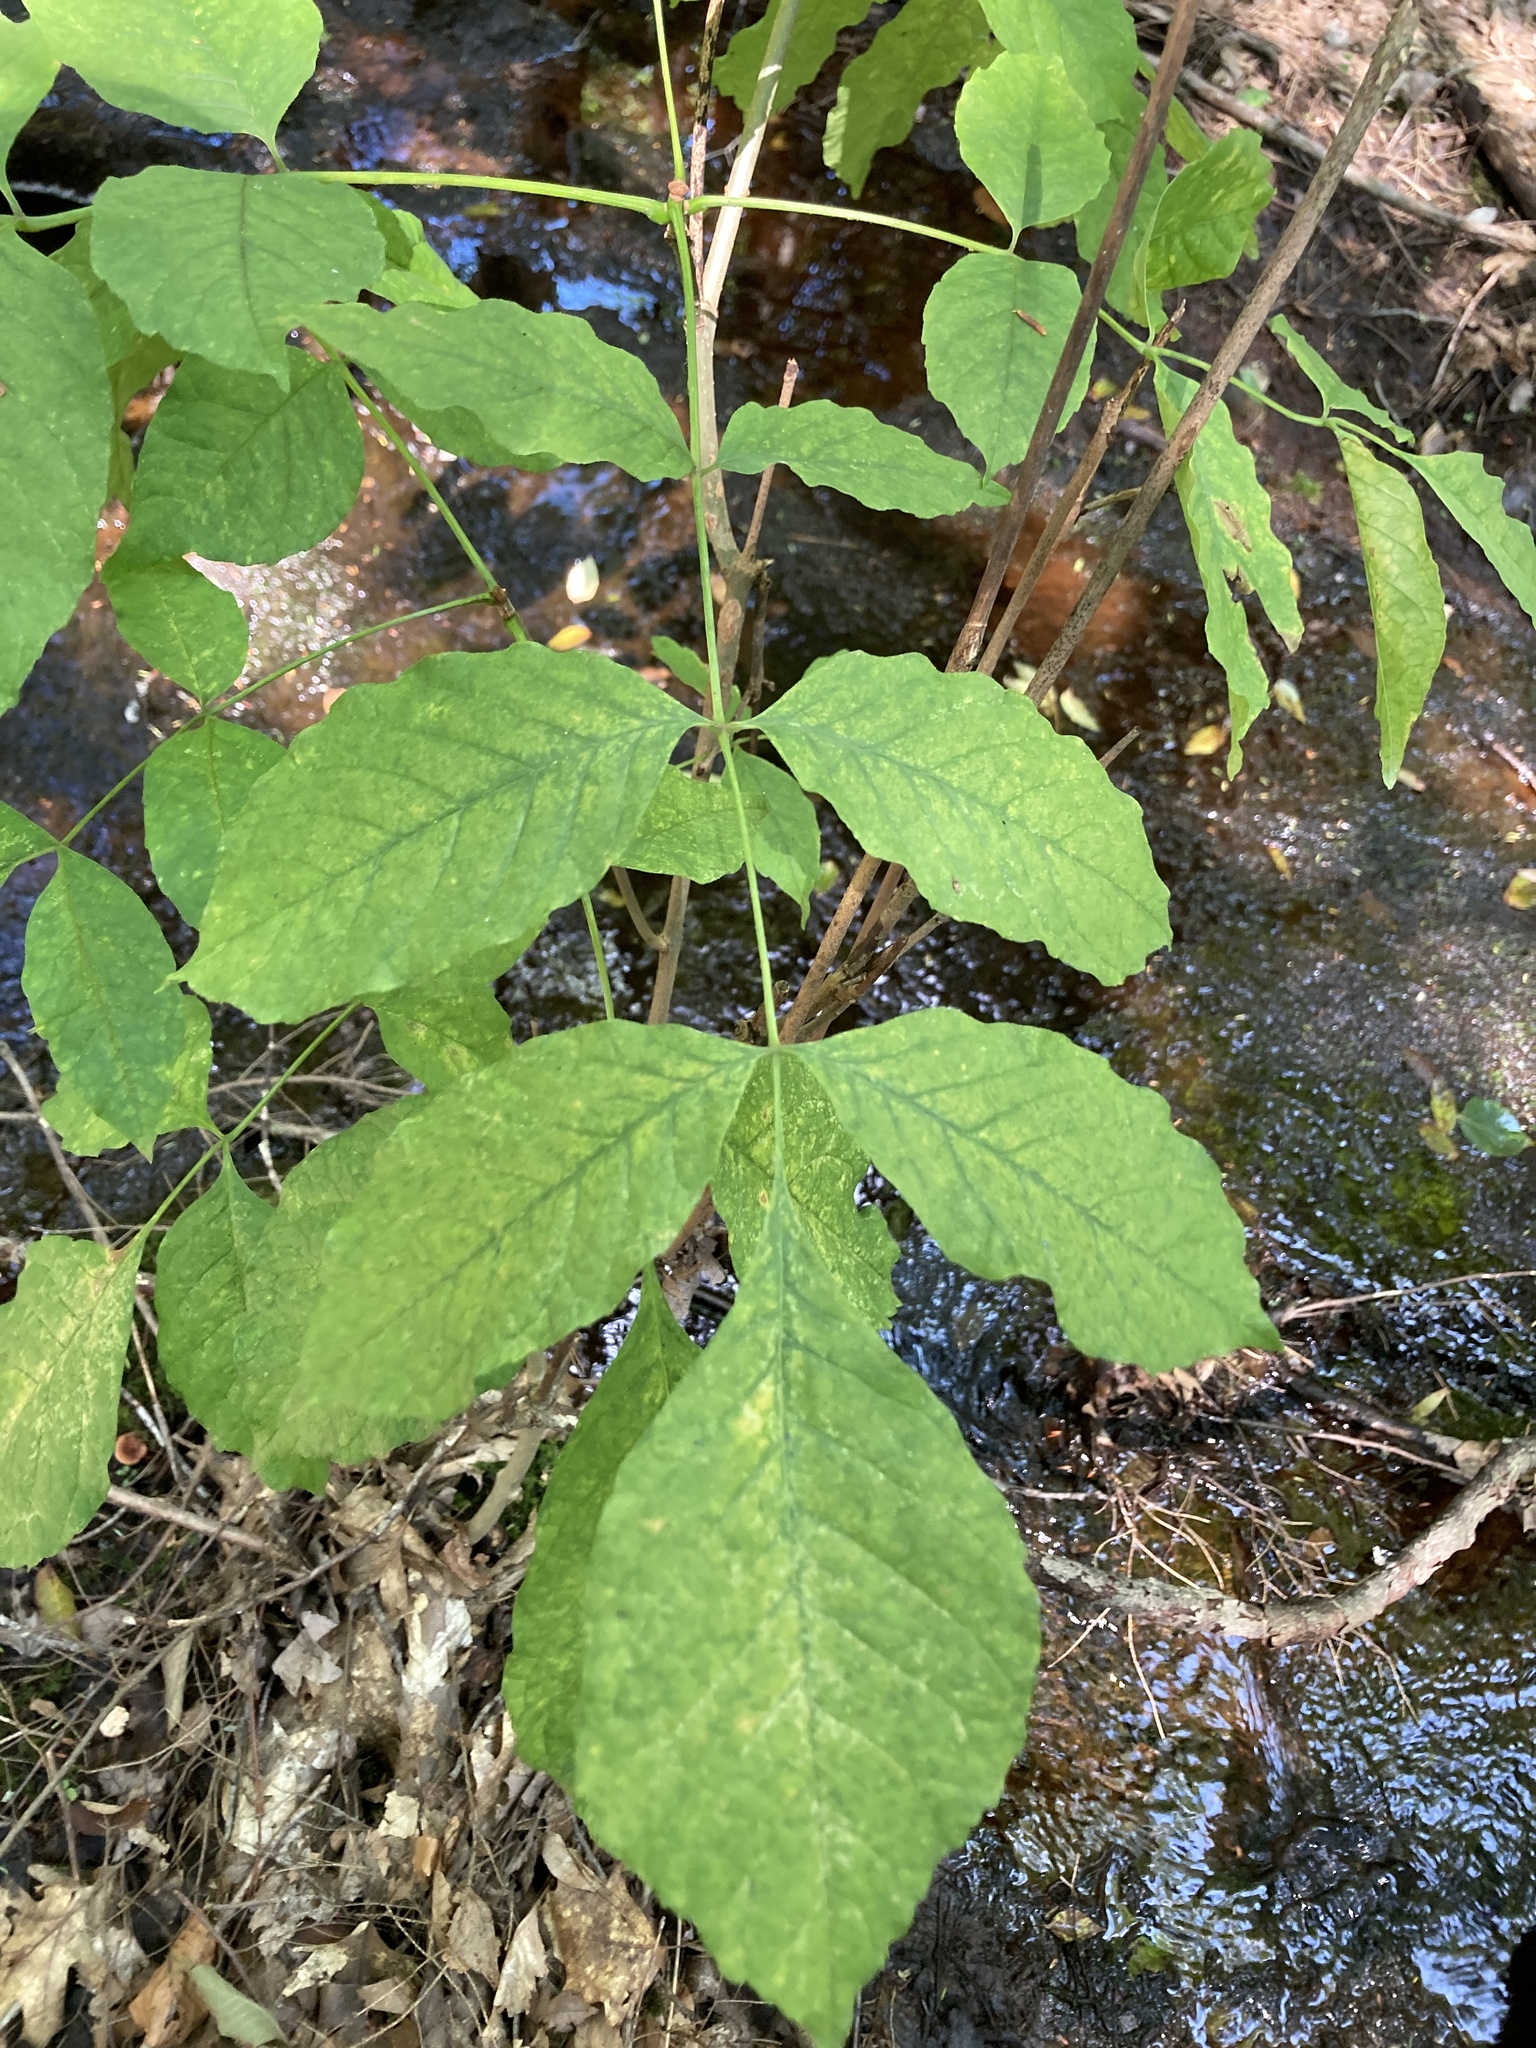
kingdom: Plantae
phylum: Tracheophyta
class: Magnoliopsida
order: Lamiales
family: Oleaceae
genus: Fraxinus
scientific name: Fraxinus americana
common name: White ash
